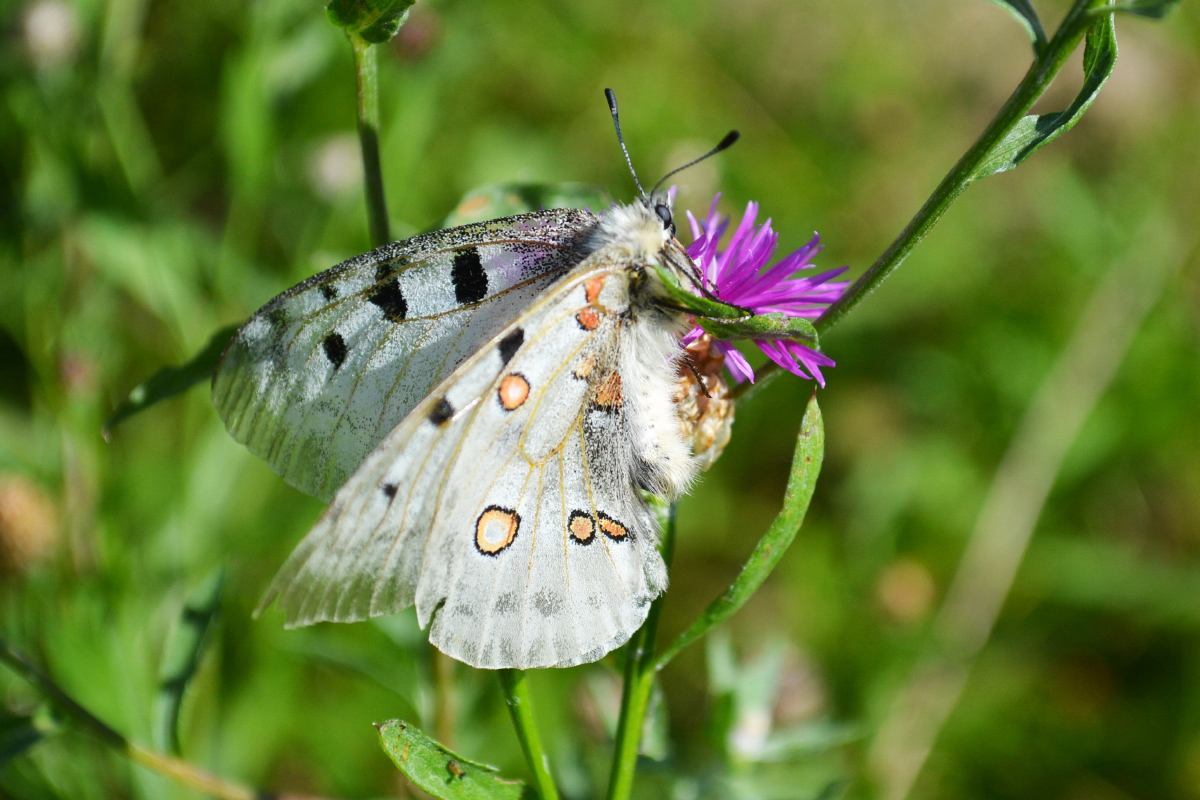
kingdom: Animalia
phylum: Arthropoda
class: Insecta
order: Lepidoptera
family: Papilionidae
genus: Parnassius
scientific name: Parnassius apollo
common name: Apollo
